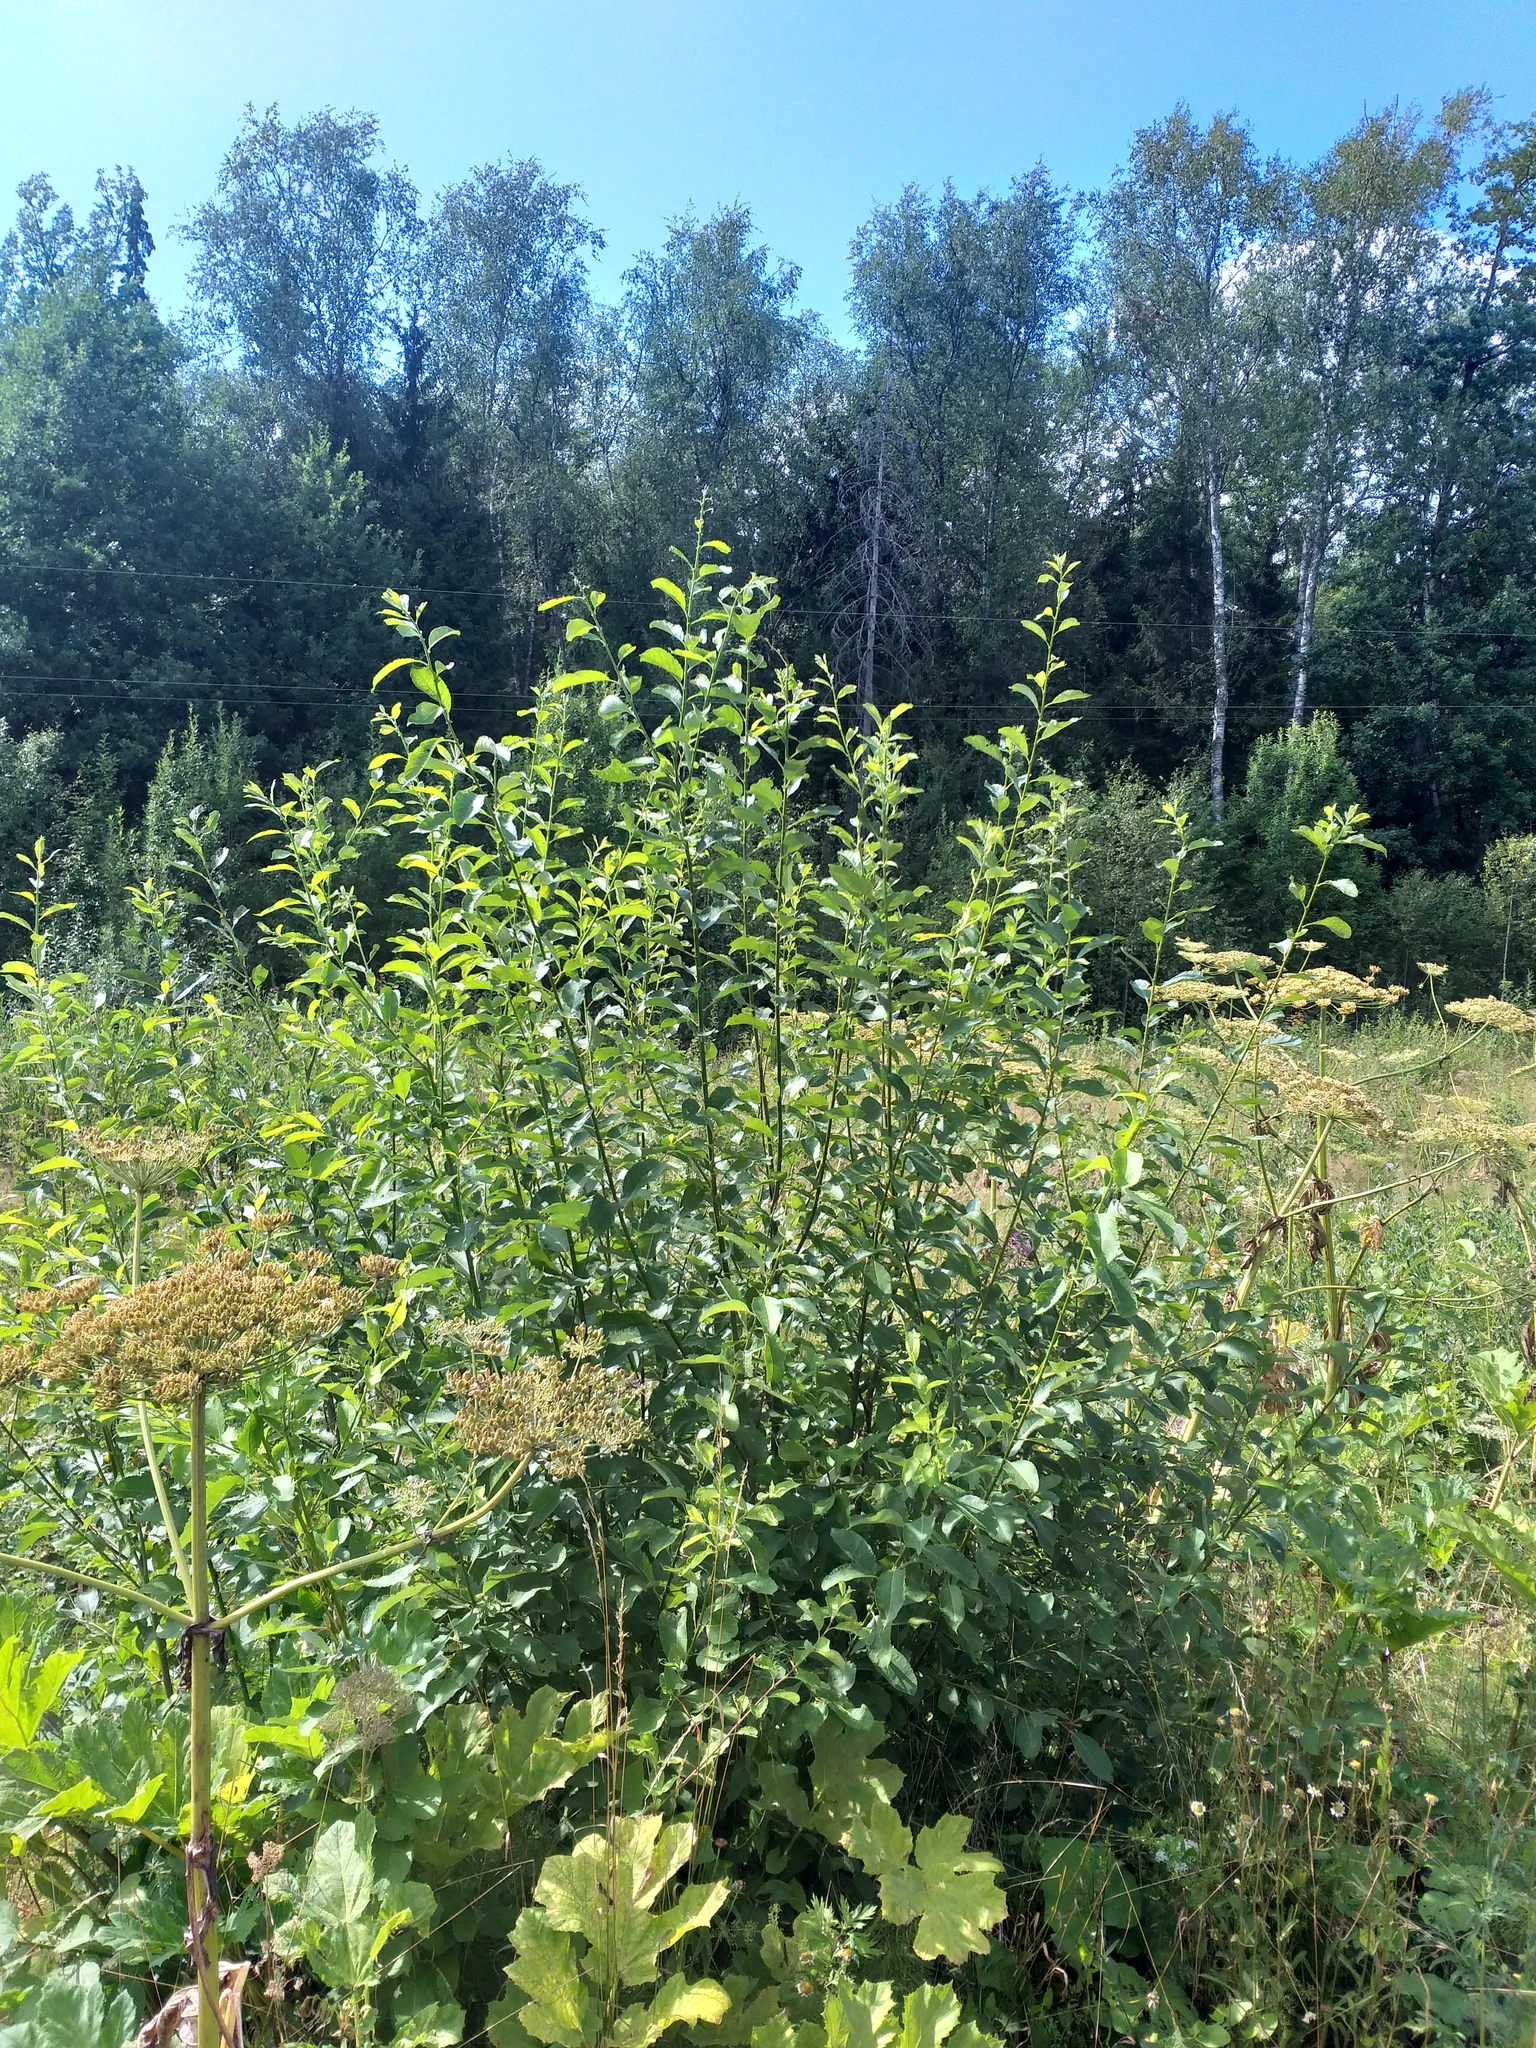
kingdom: Plantae
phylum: Tracheophyta
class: Magnoliopsida
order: Malpighiales
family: Salicaceae
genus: Salix
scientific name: Salix caprea
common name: Goat willow
